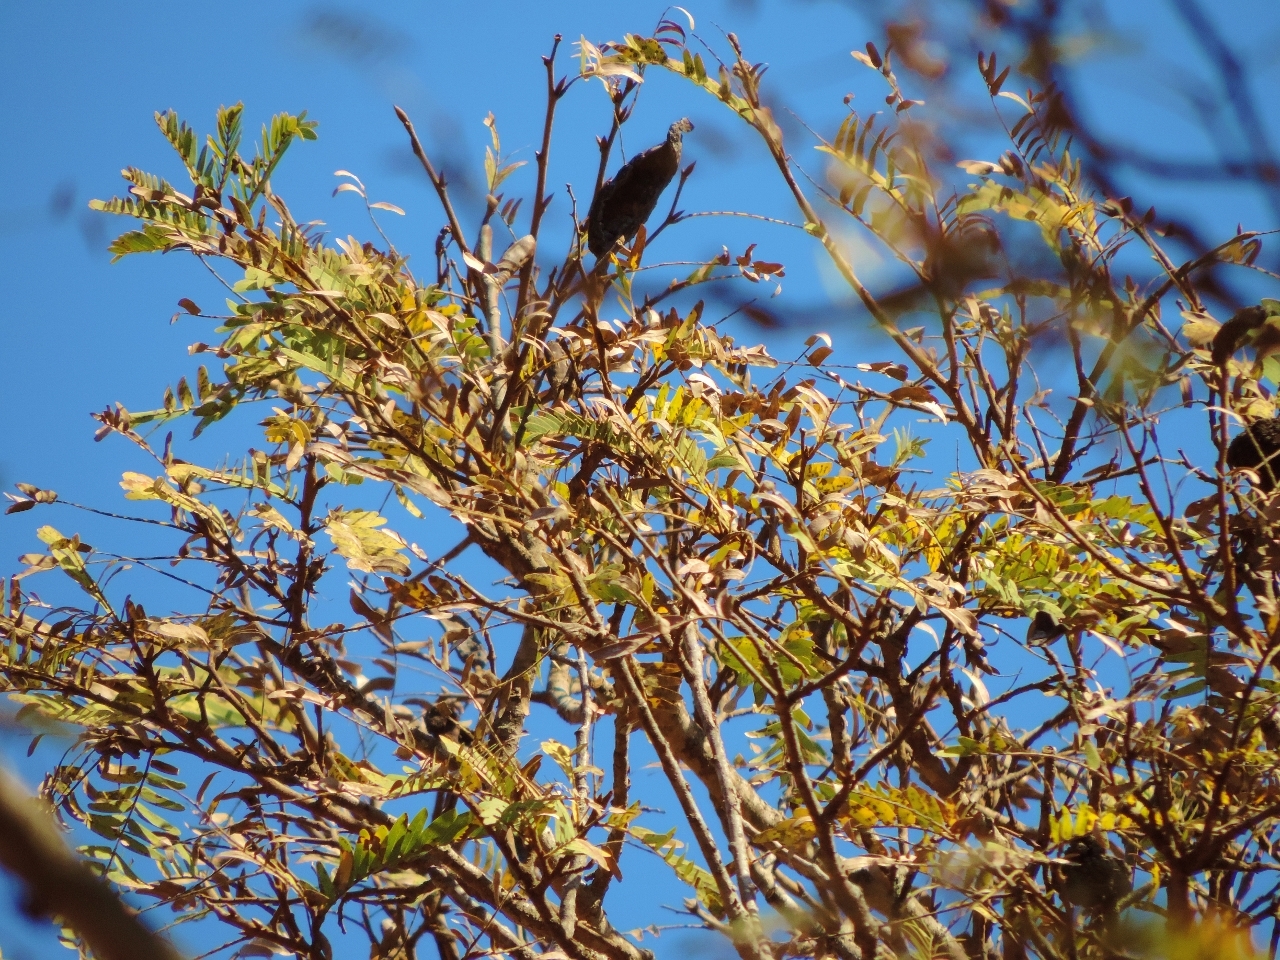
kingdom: Plantae
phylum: Tracheophyta
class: Magnoliopsida
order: Fabales
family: Fabaceae
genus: Brachystegia
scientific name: Brachystegia tamarindoides
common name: Mountain acacia
